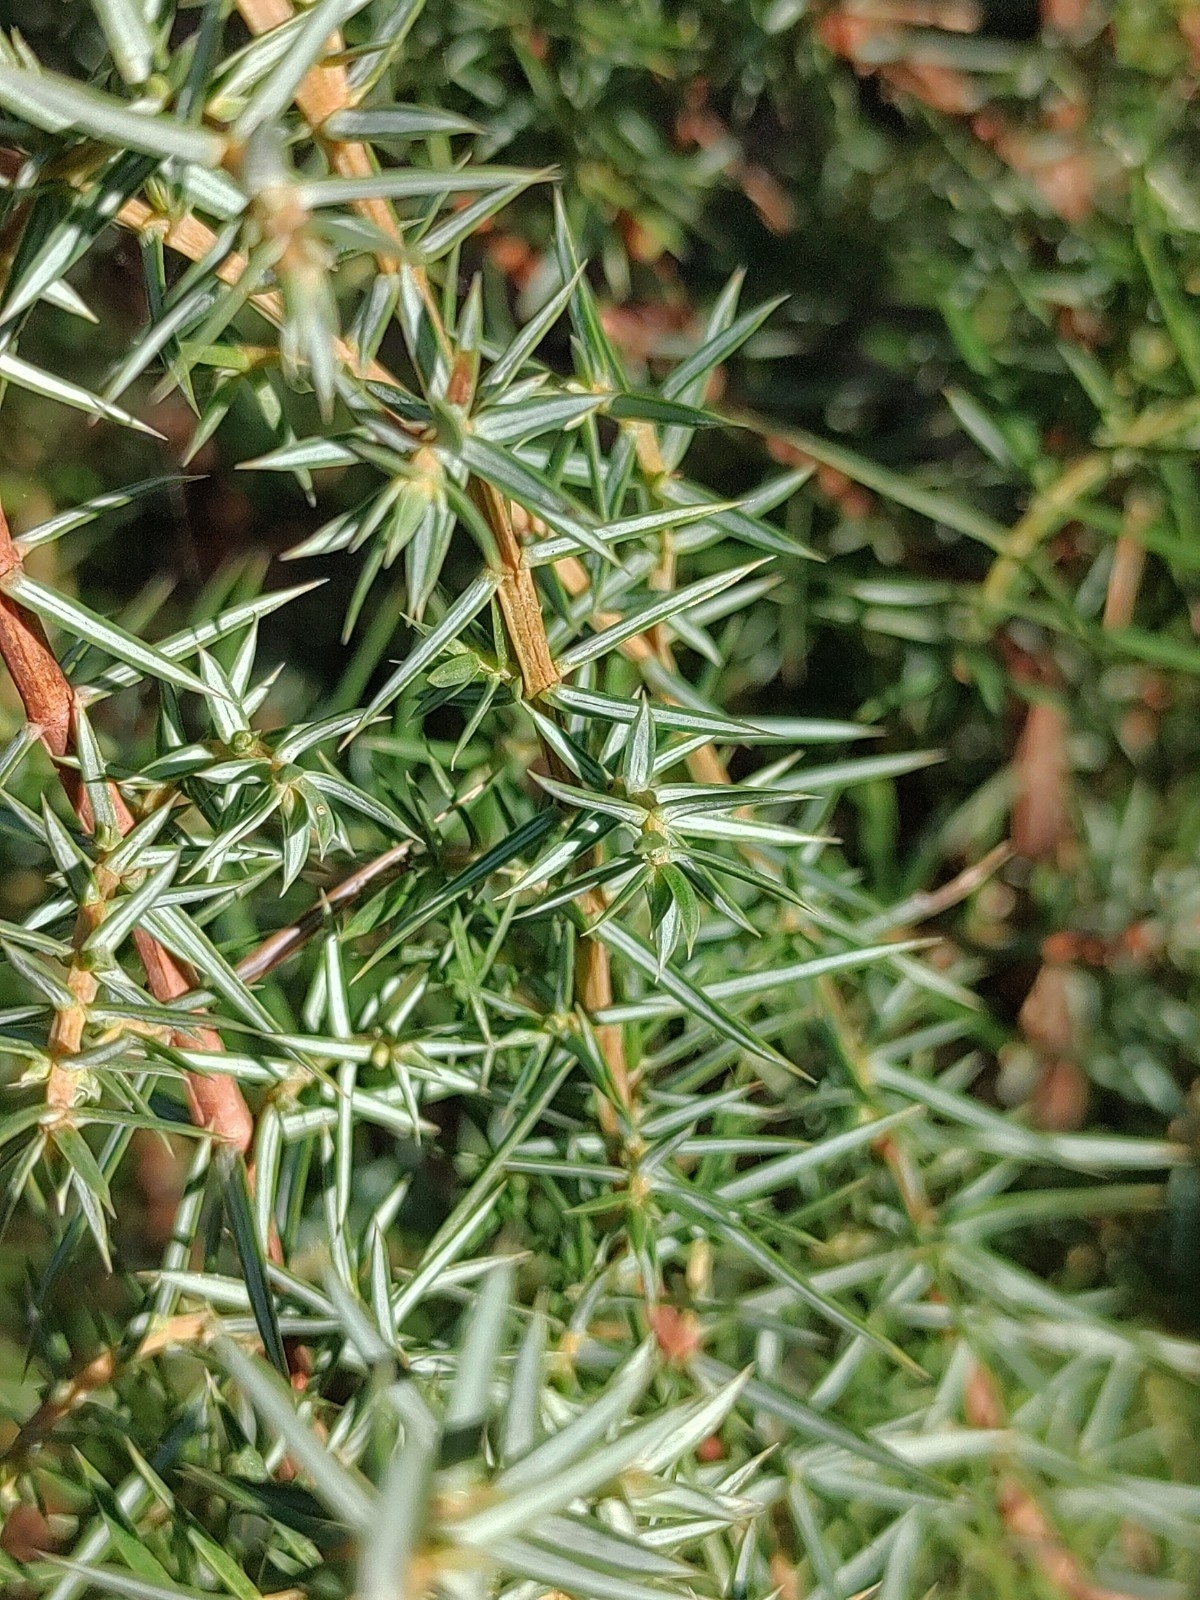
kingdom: Plantae
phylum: Tracheophyta
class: Pinopsida
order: Pinales
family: Cupressaceae
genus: Juniperus
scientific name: Juniperus communis
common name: Common juniper
